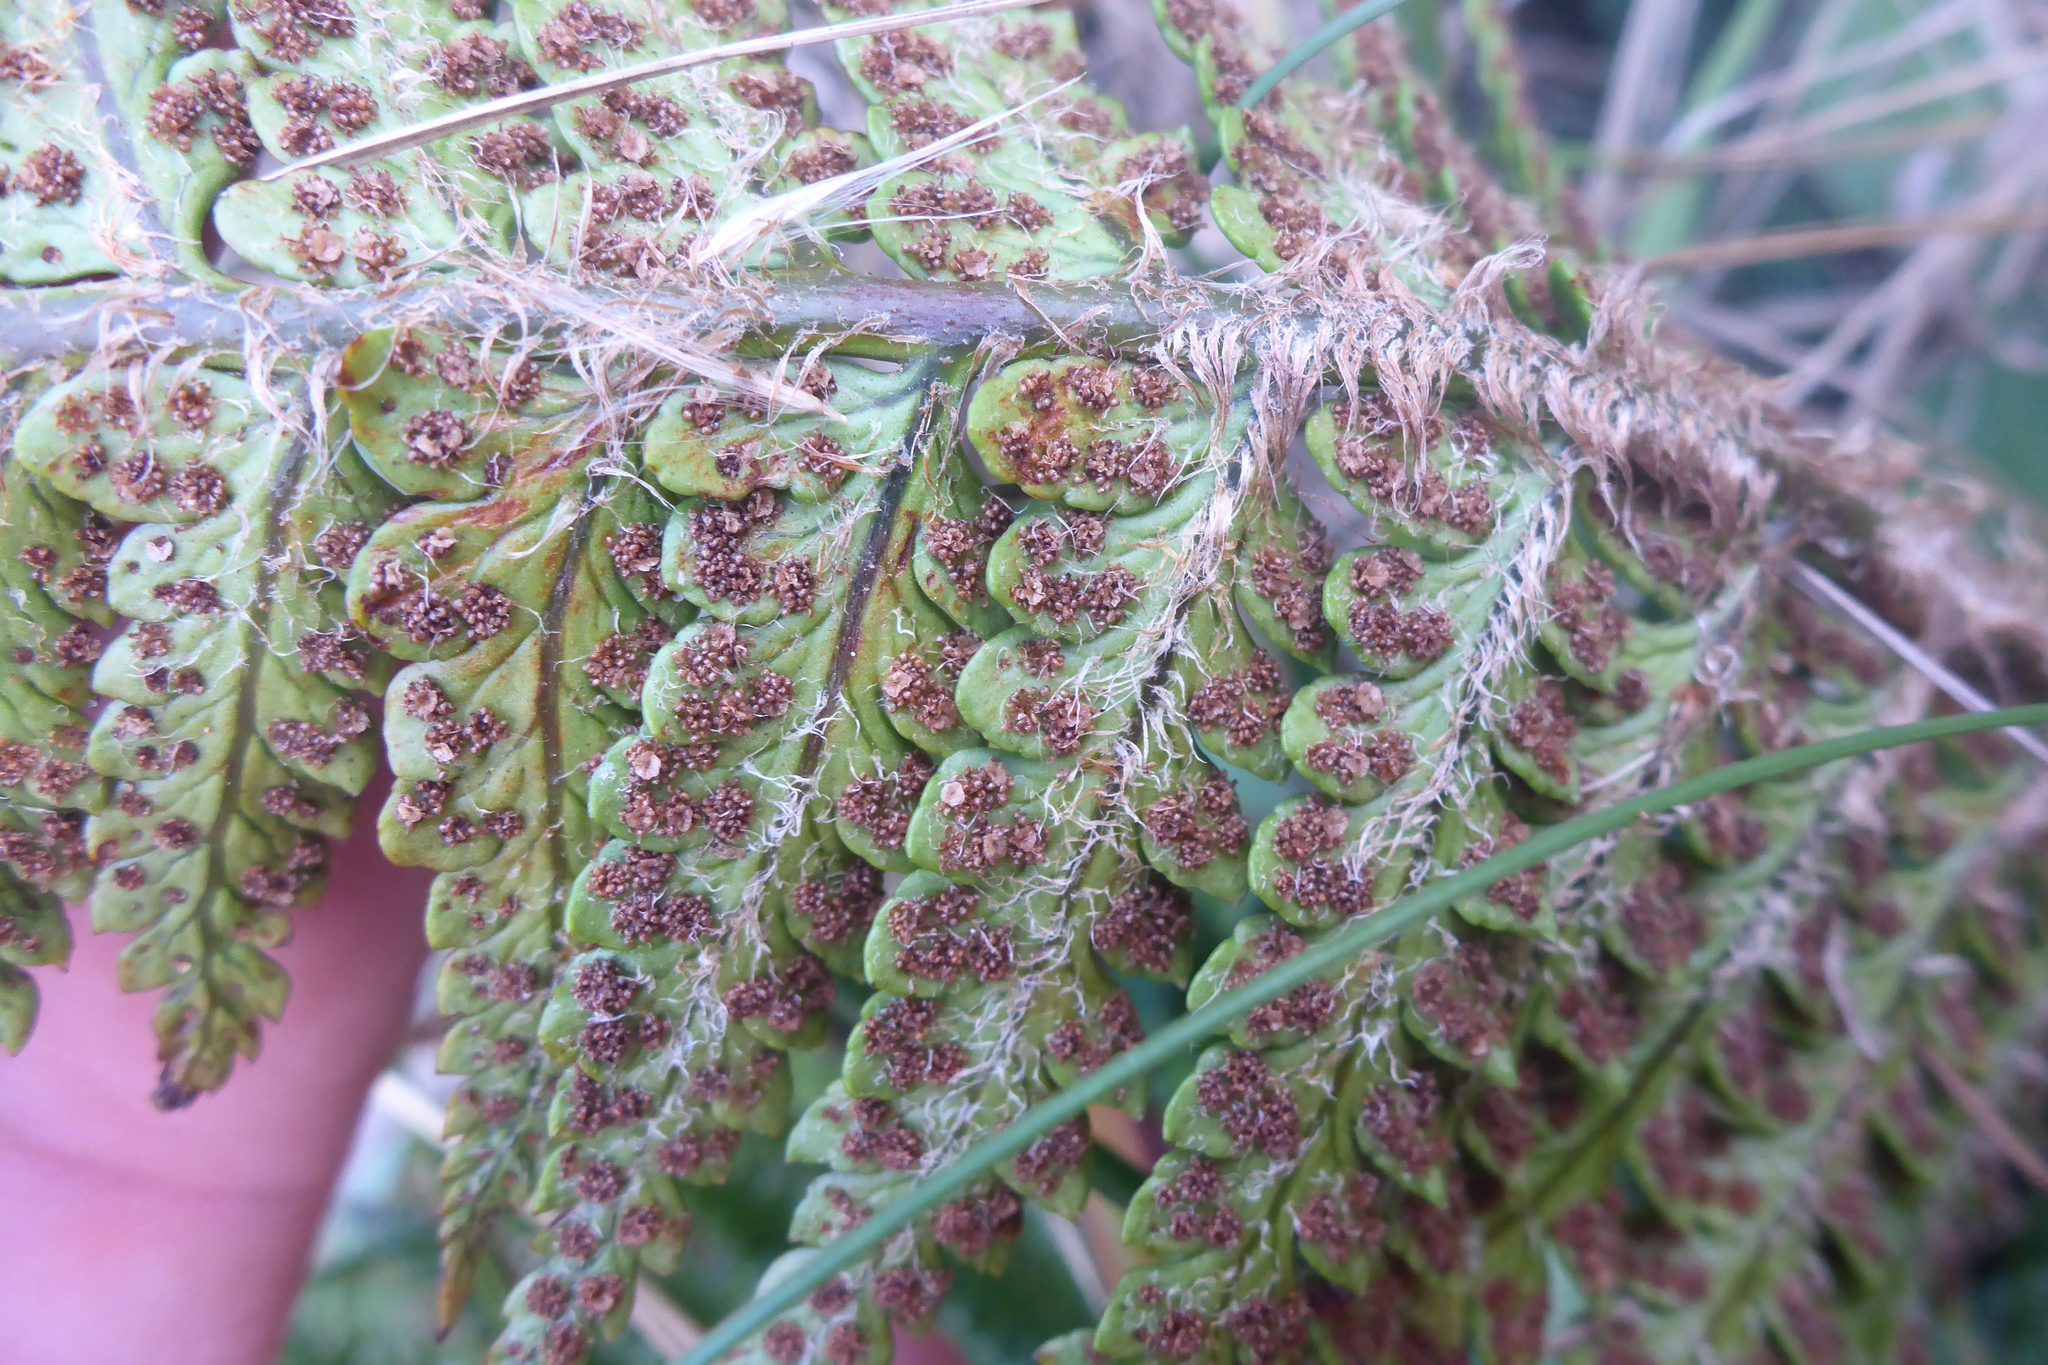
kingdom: Plantae
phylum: Tracheophyta
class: Polypodiopsida
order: Polypodiales
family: Dryopteridaceae
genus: Polystichum
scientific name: Polystichum wawranum
